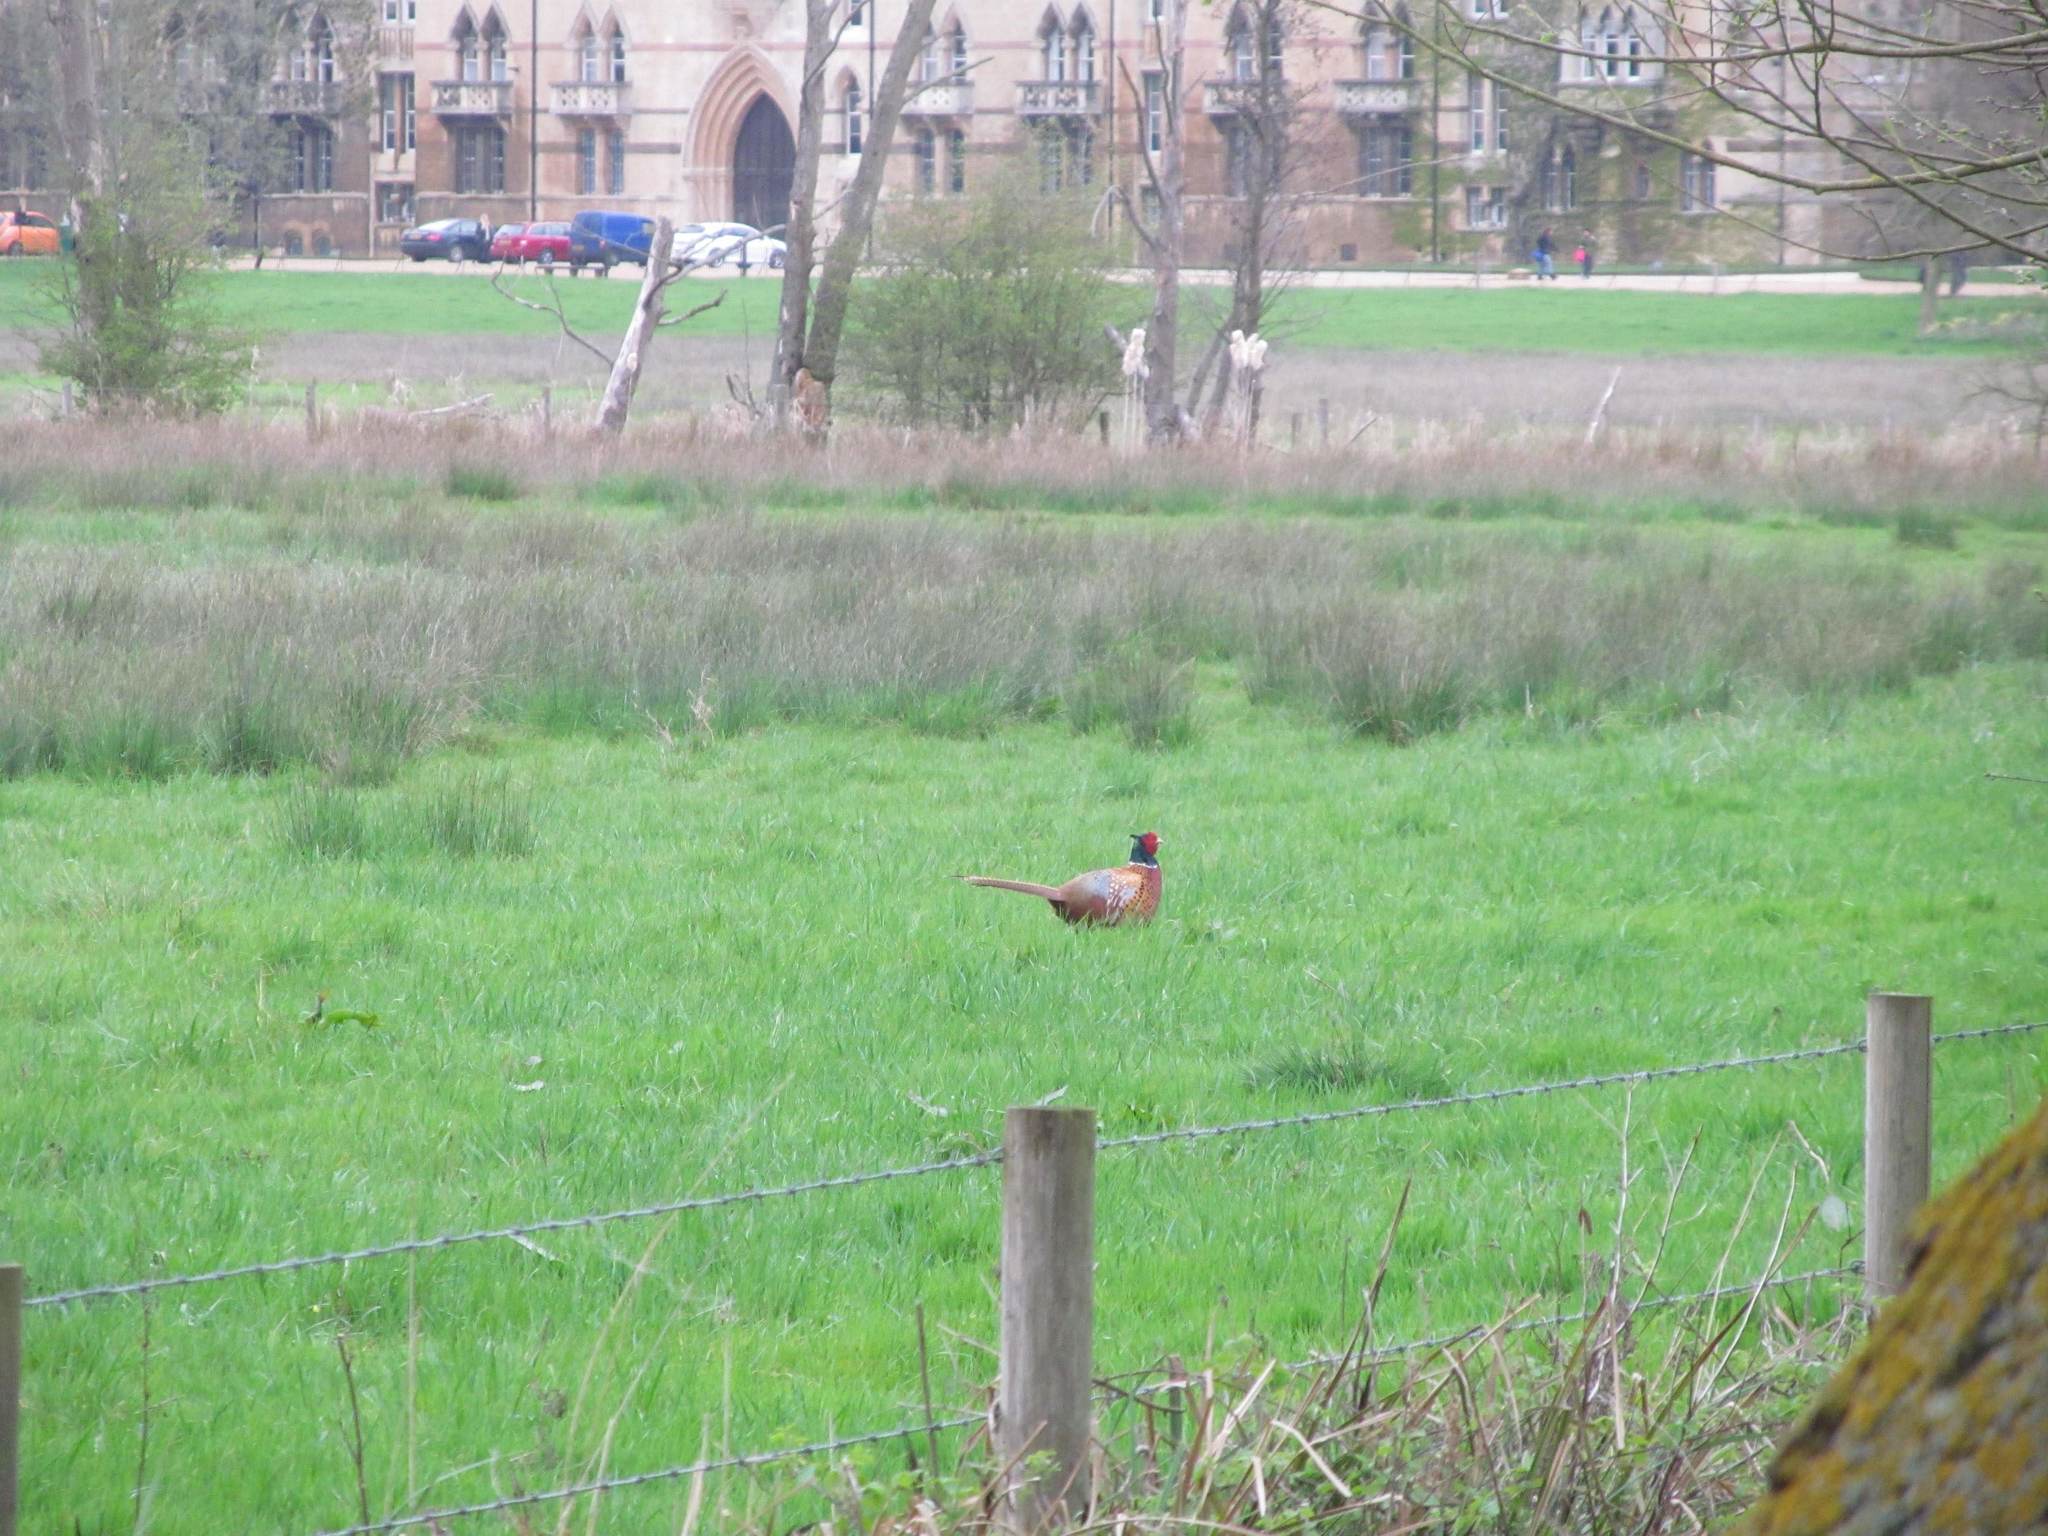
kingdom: Animalia
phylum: Chordata
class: Aves
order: Galliformes
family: Phasianidae
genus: Phasianus
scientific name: Phasianus colchicus
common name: Common pheasant
